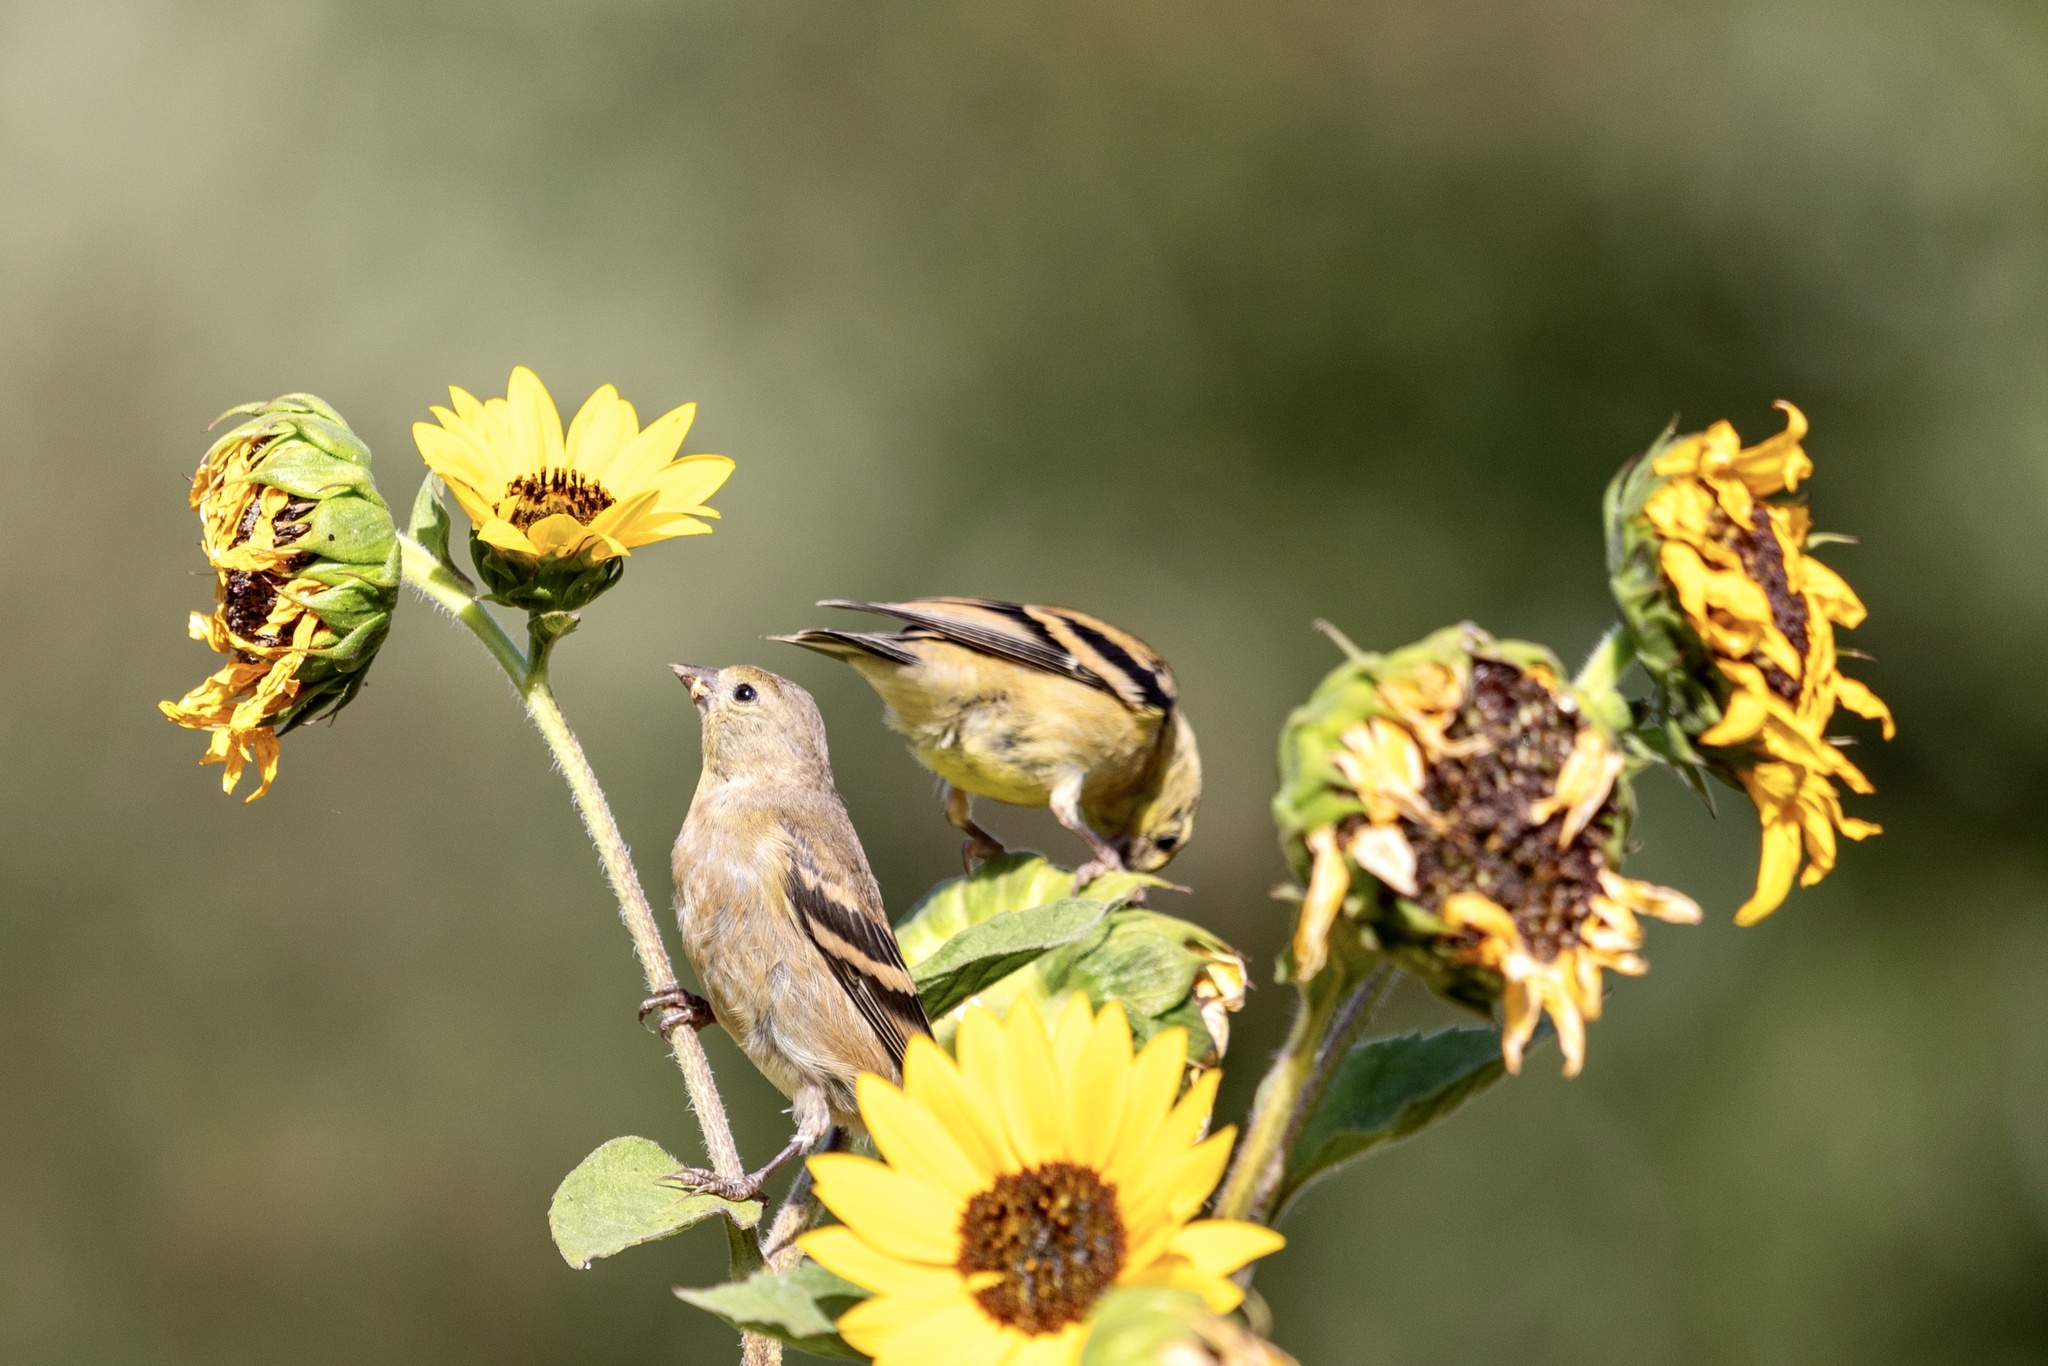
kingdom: Animalia
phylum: Chordata
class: Aves
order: Passeriformes
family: Fringillidae
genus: Spinus
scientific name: Spinus tristis
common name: American goldfinch
